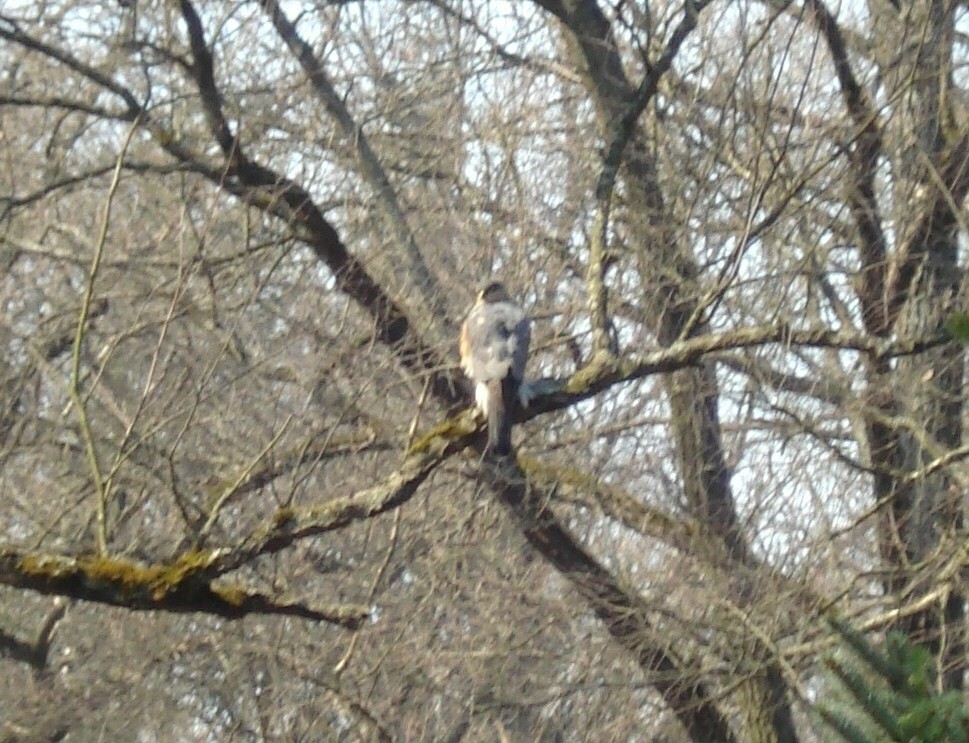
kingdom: Animalia
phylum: Chordata
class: Aves
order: Accipitriformes
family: Accipitridae
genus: Accipiter
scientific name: Accipiter nisus
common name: Eurasian sparrowhawk
